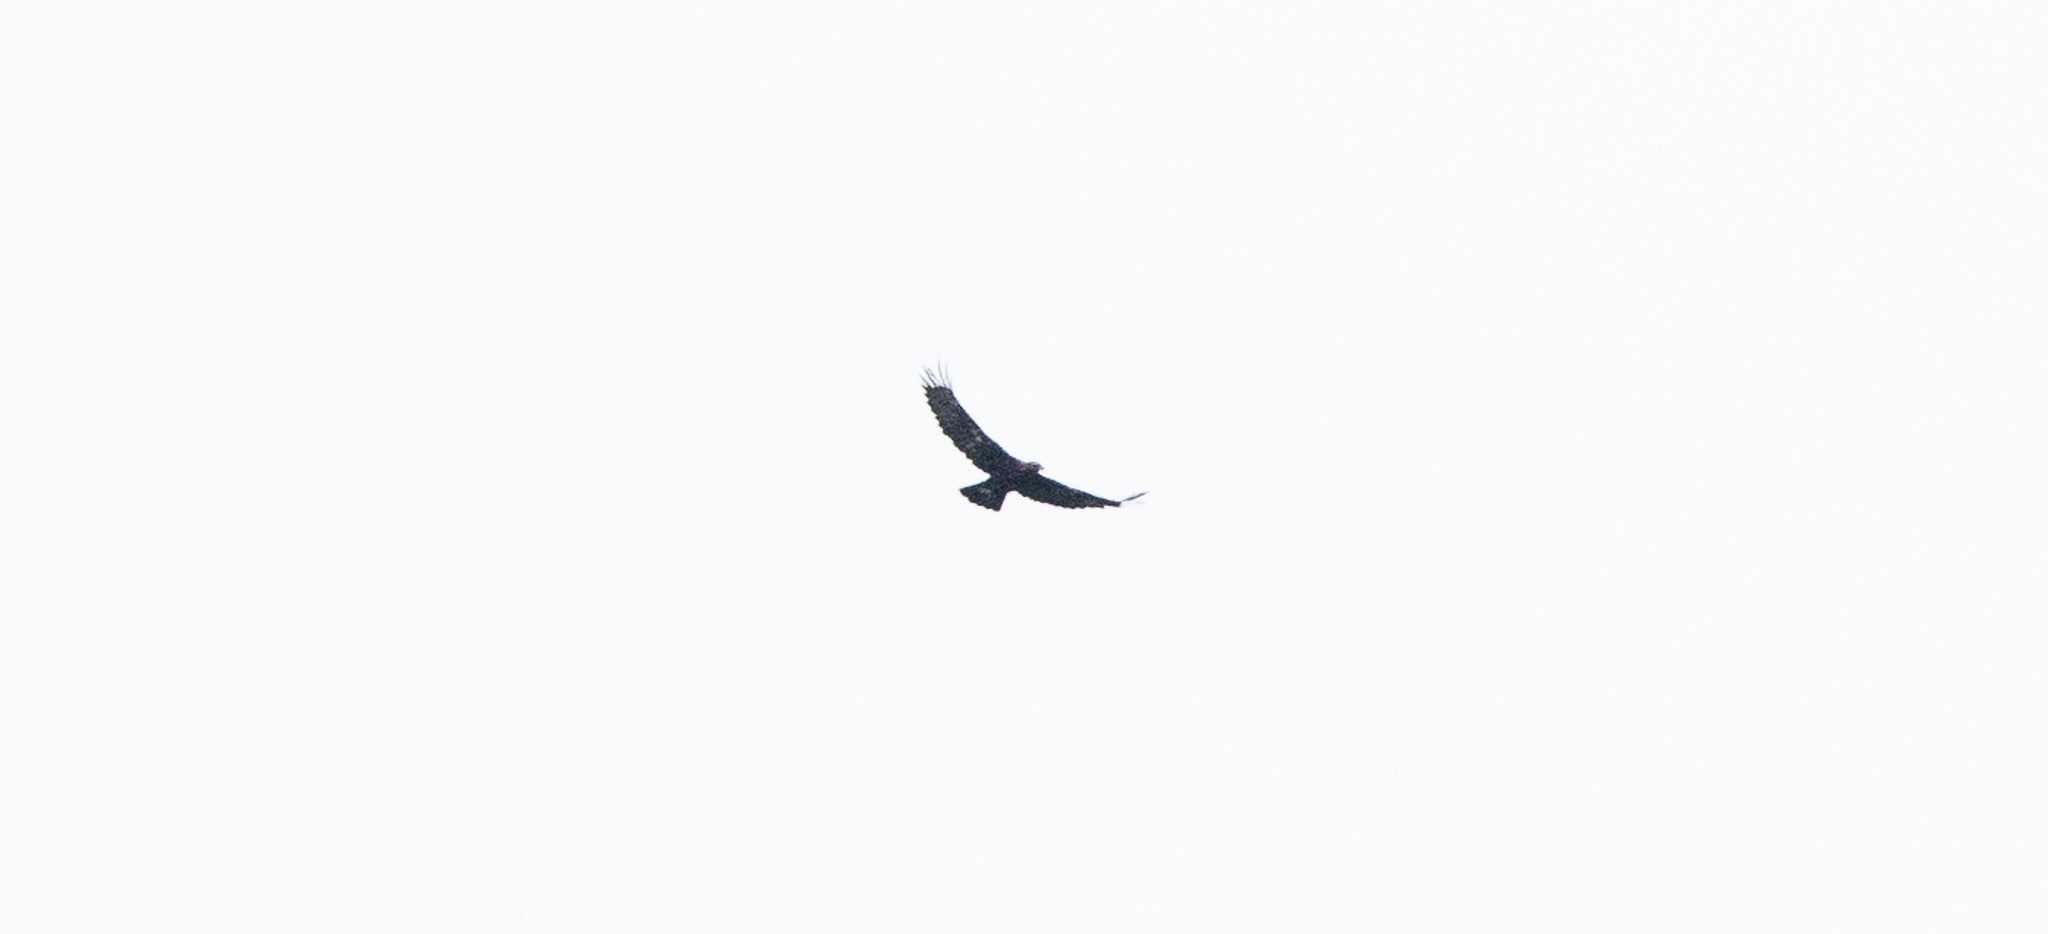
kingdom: Animalia
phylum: Chordata
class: Aves
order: Accipitriformes
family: Accipitridae
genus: Aquila
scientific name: Aquila chrysaetos
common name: Golden eagle
